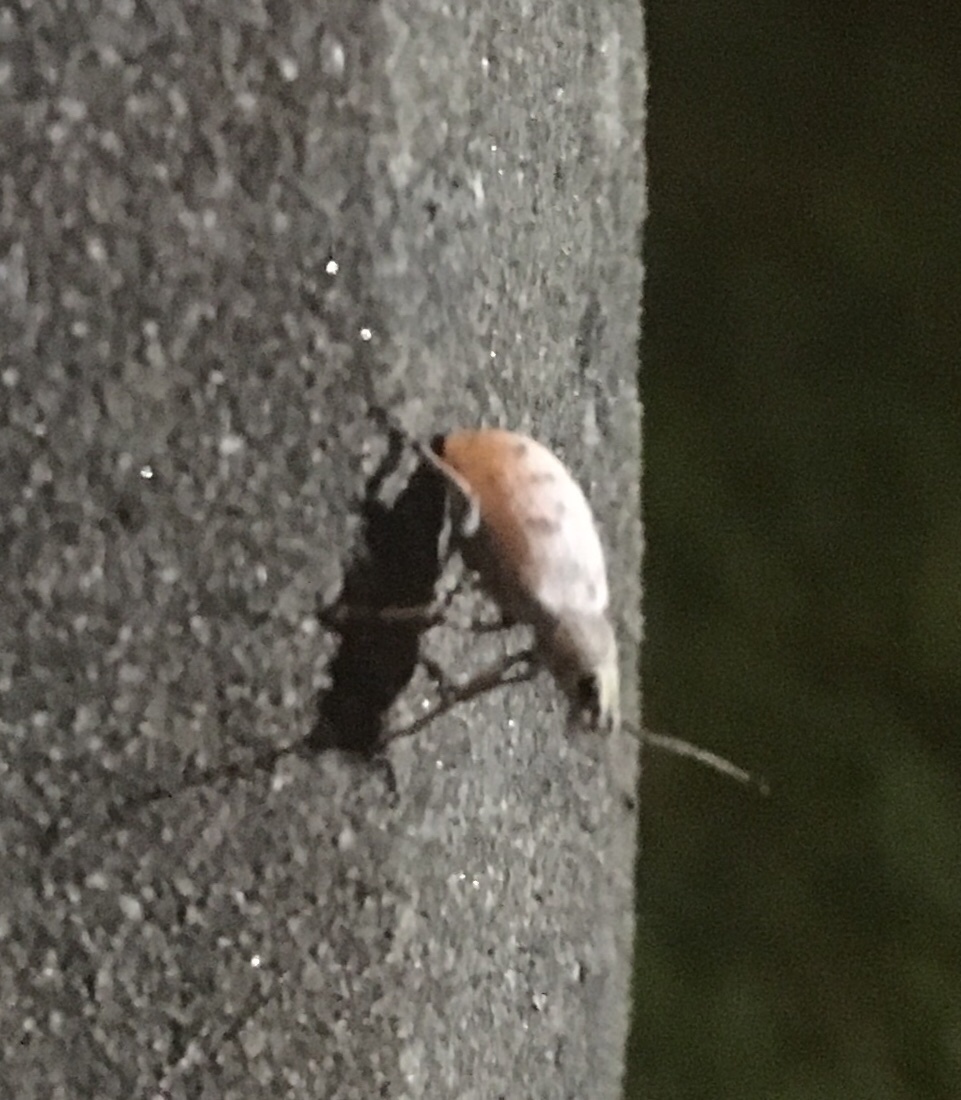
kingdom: Animalia
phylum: Arthropoda
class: Insecta
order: Coleoptera
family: Curculionidae
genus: Myllocerus
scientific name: Myllocerus undecimpustulatus
